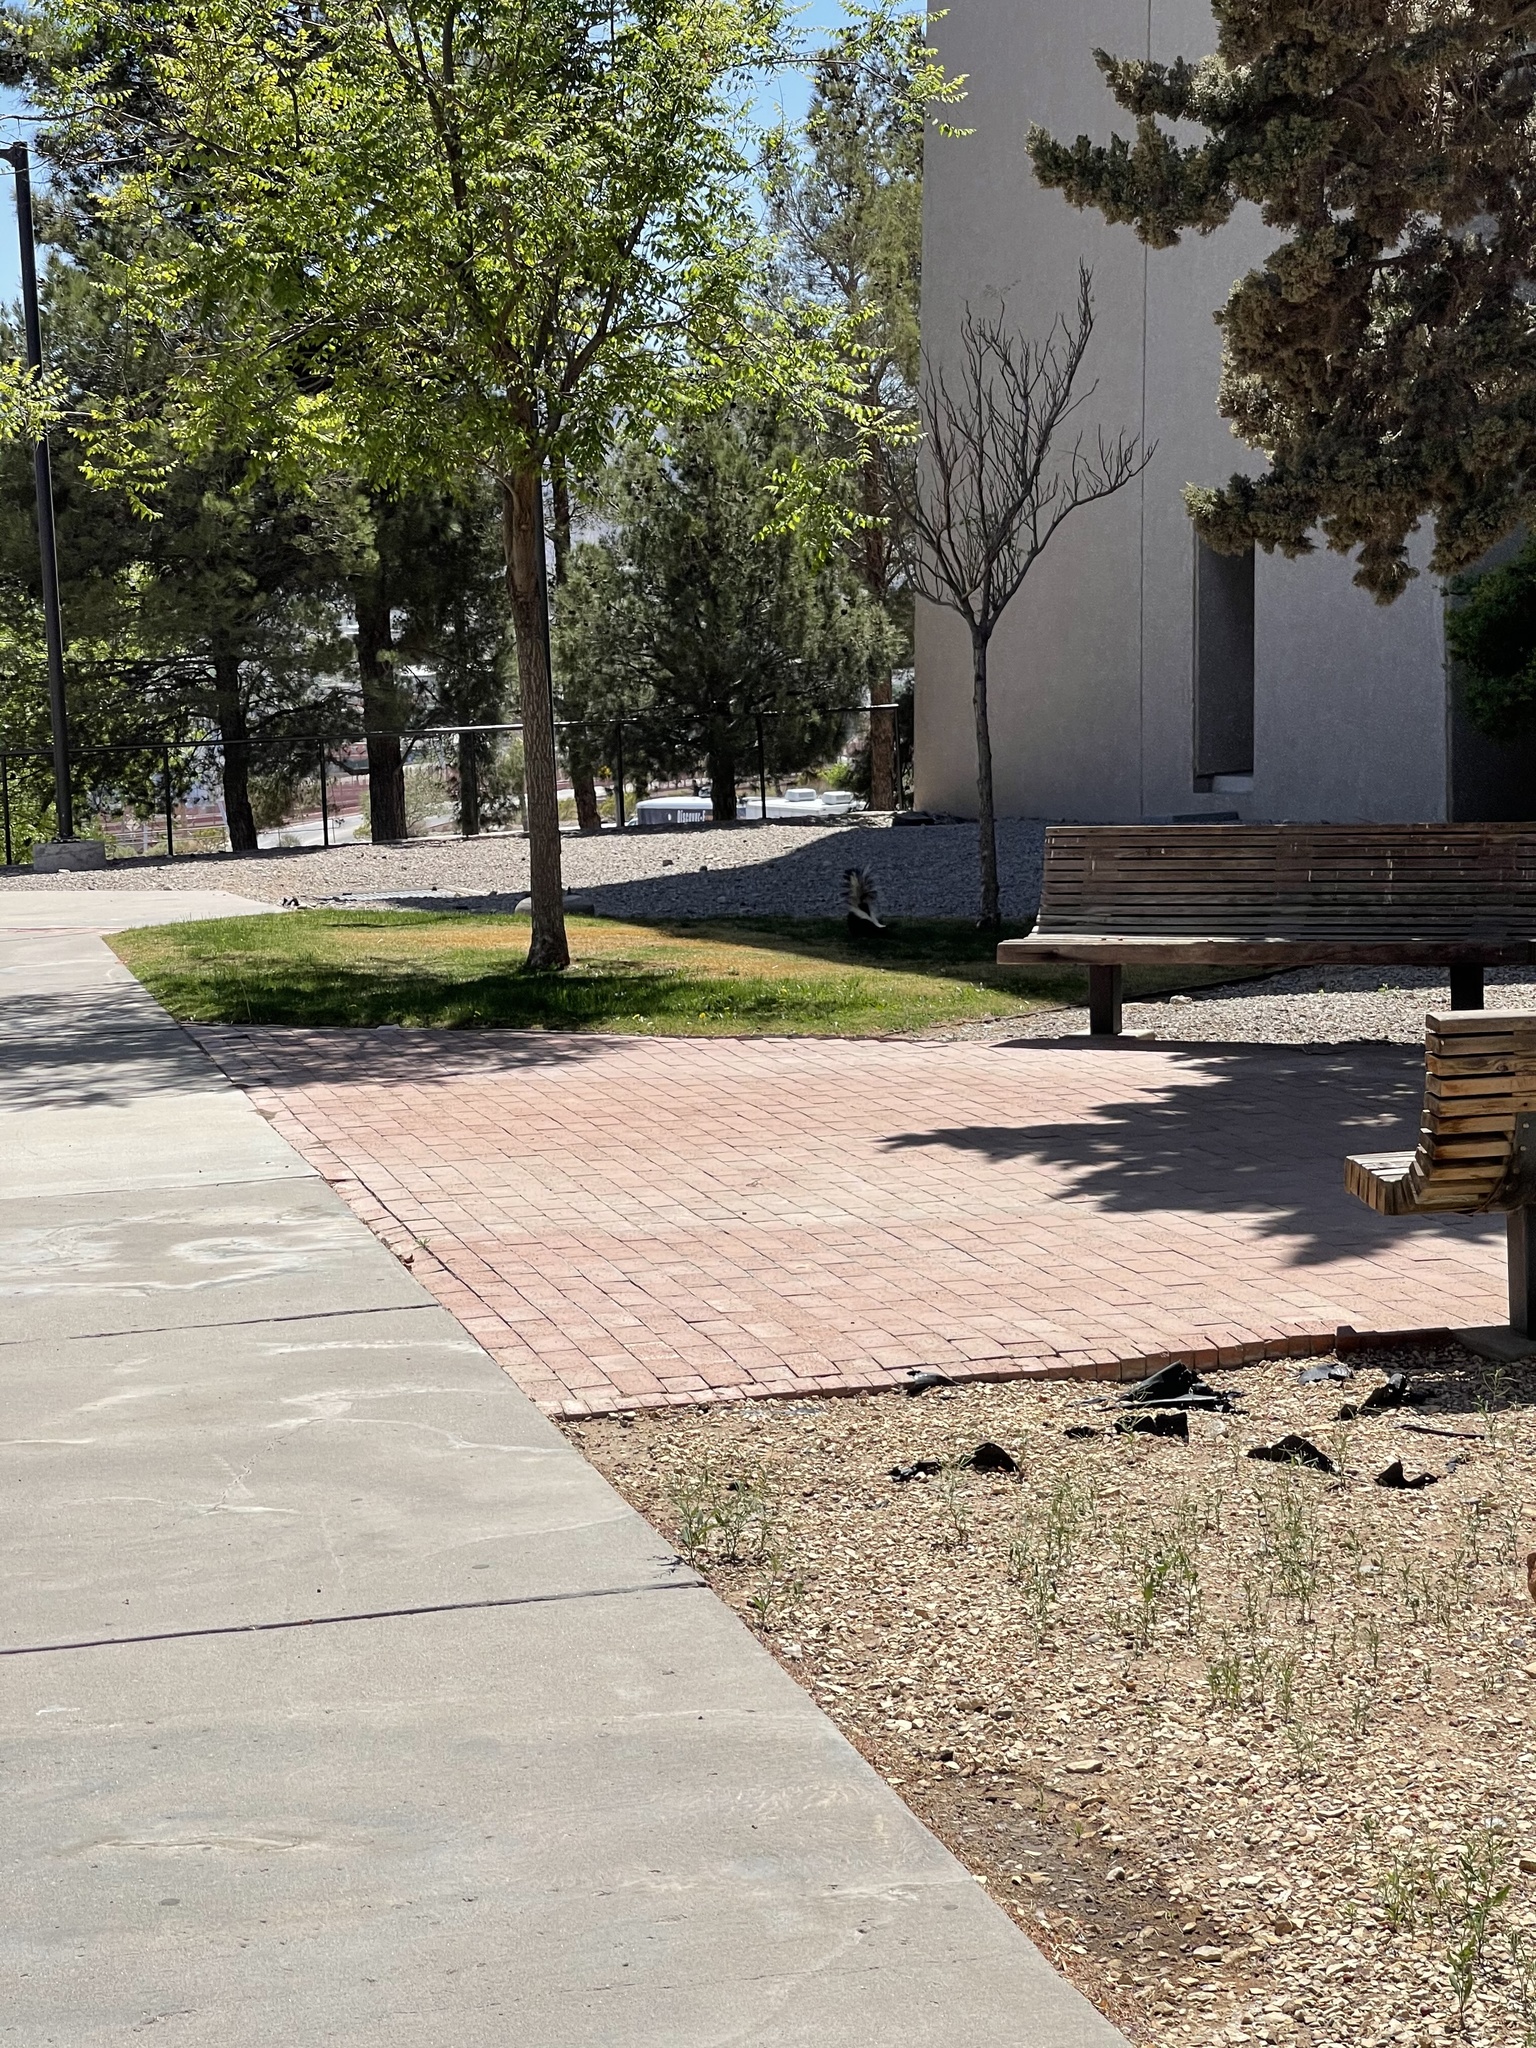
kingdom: Animalia
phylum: Chordata
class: Mammalia
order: Carnivora
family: Mephitidae
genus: Mephitis
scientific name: Mephitis mephitis
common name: Striped skunk
